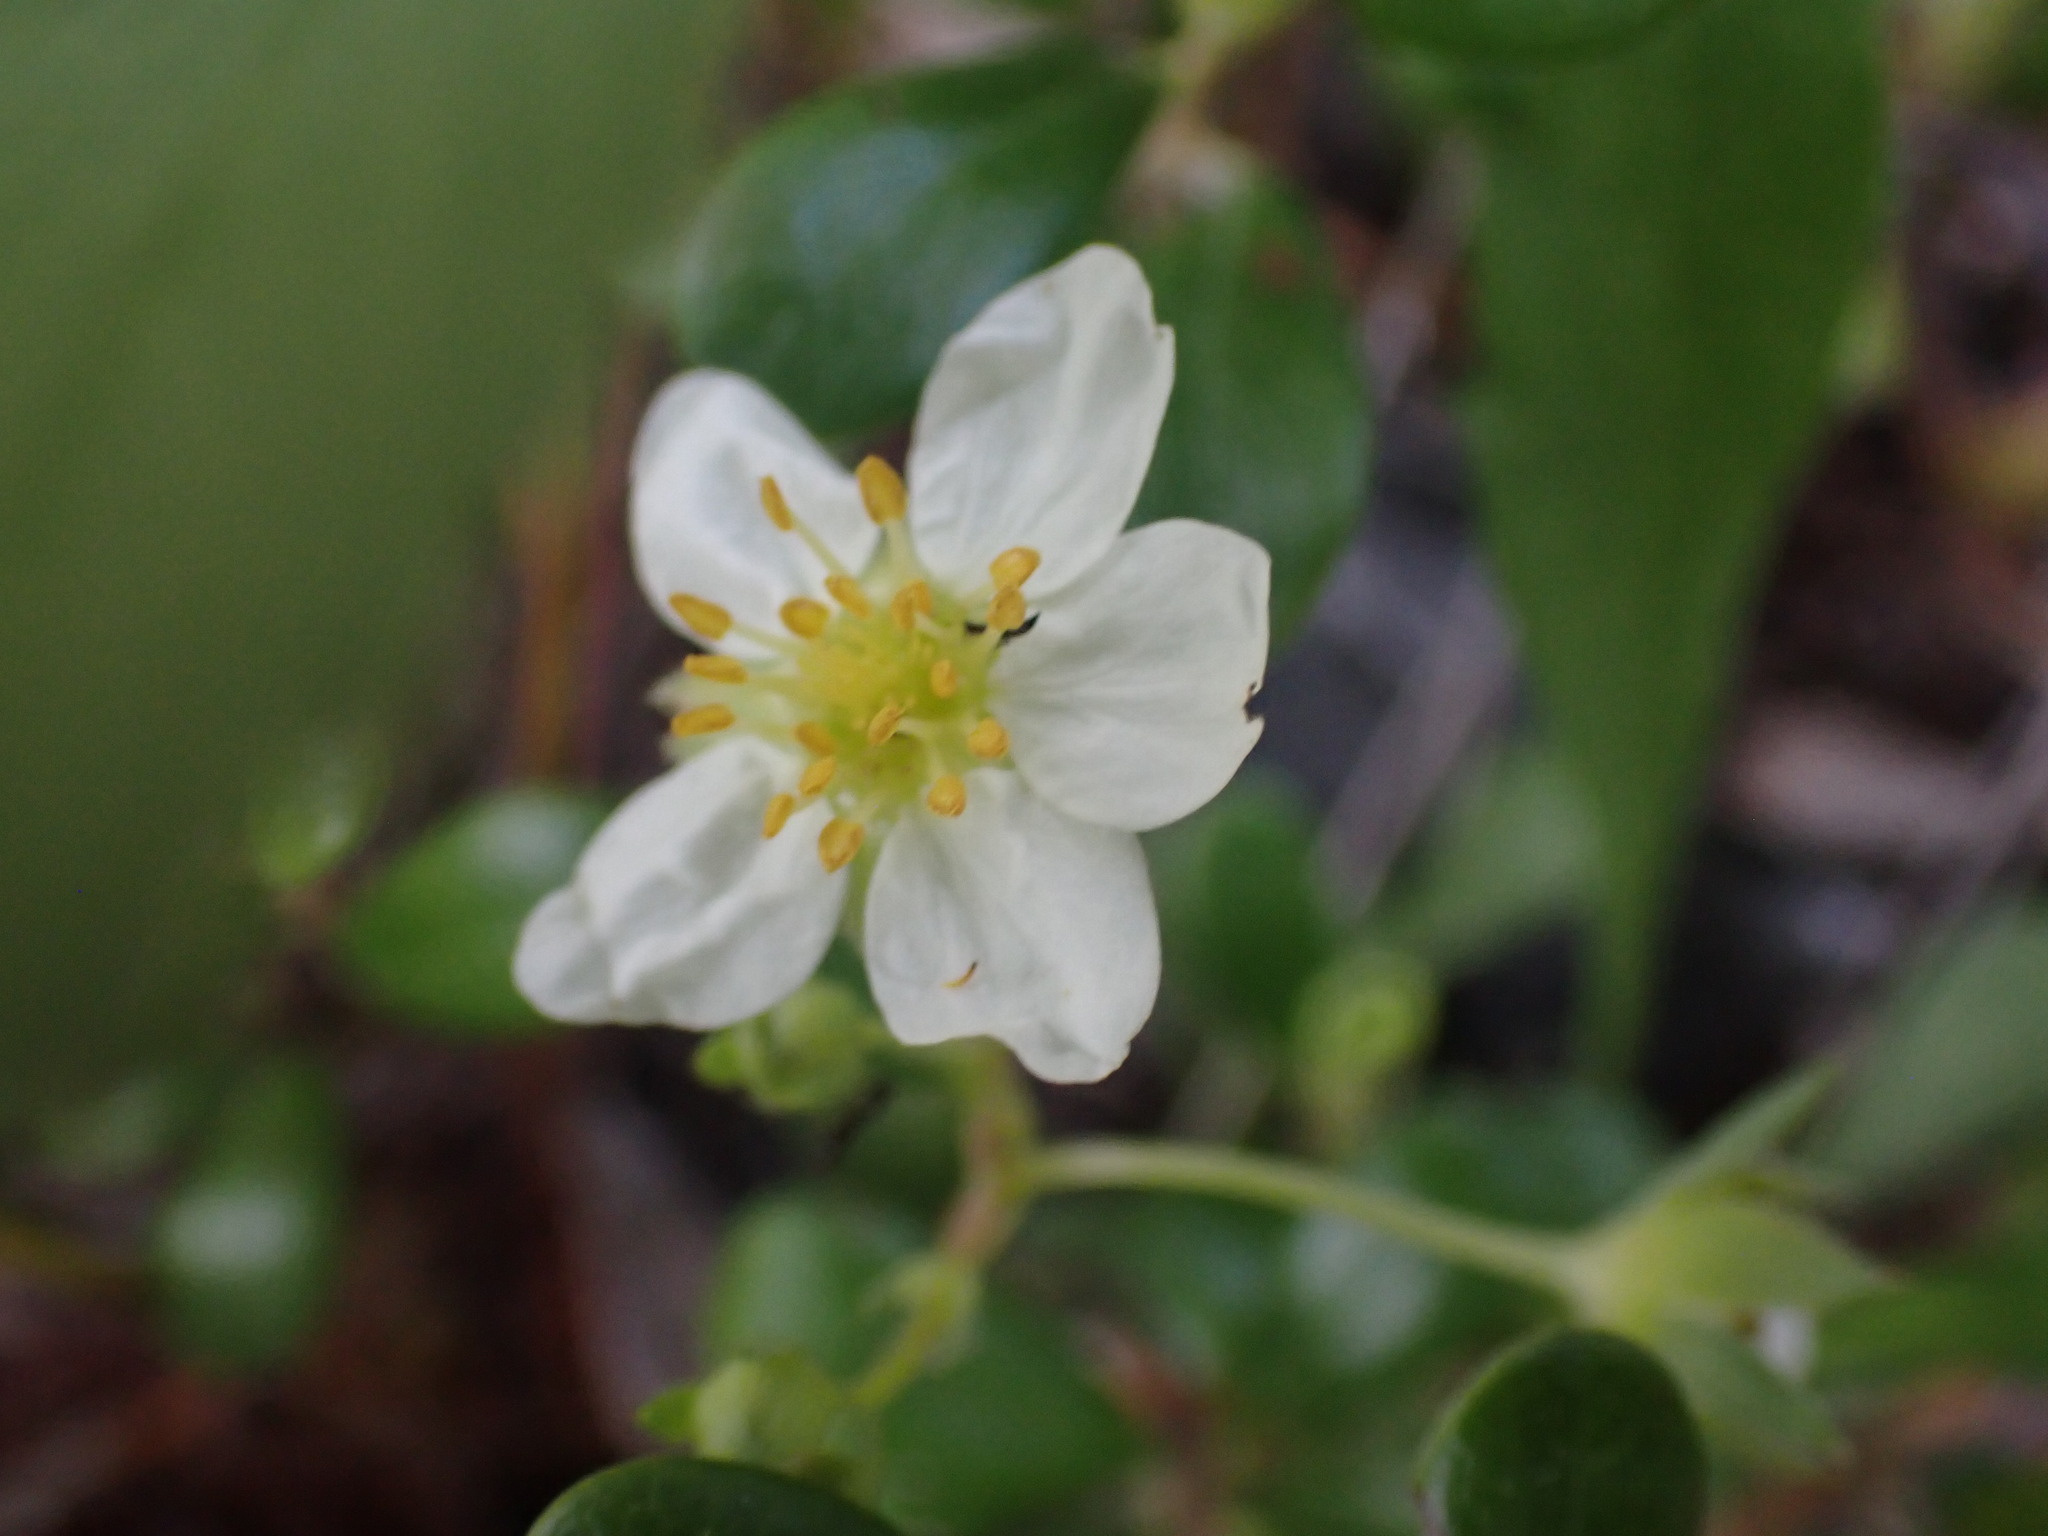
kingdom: Plantae
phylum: Tracheophyta
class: Magnoliopsida
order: Rosales
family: Rosaceae
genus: Fragaria
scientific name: Fragaria virginiana
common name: Thickleaved wild strawberry
